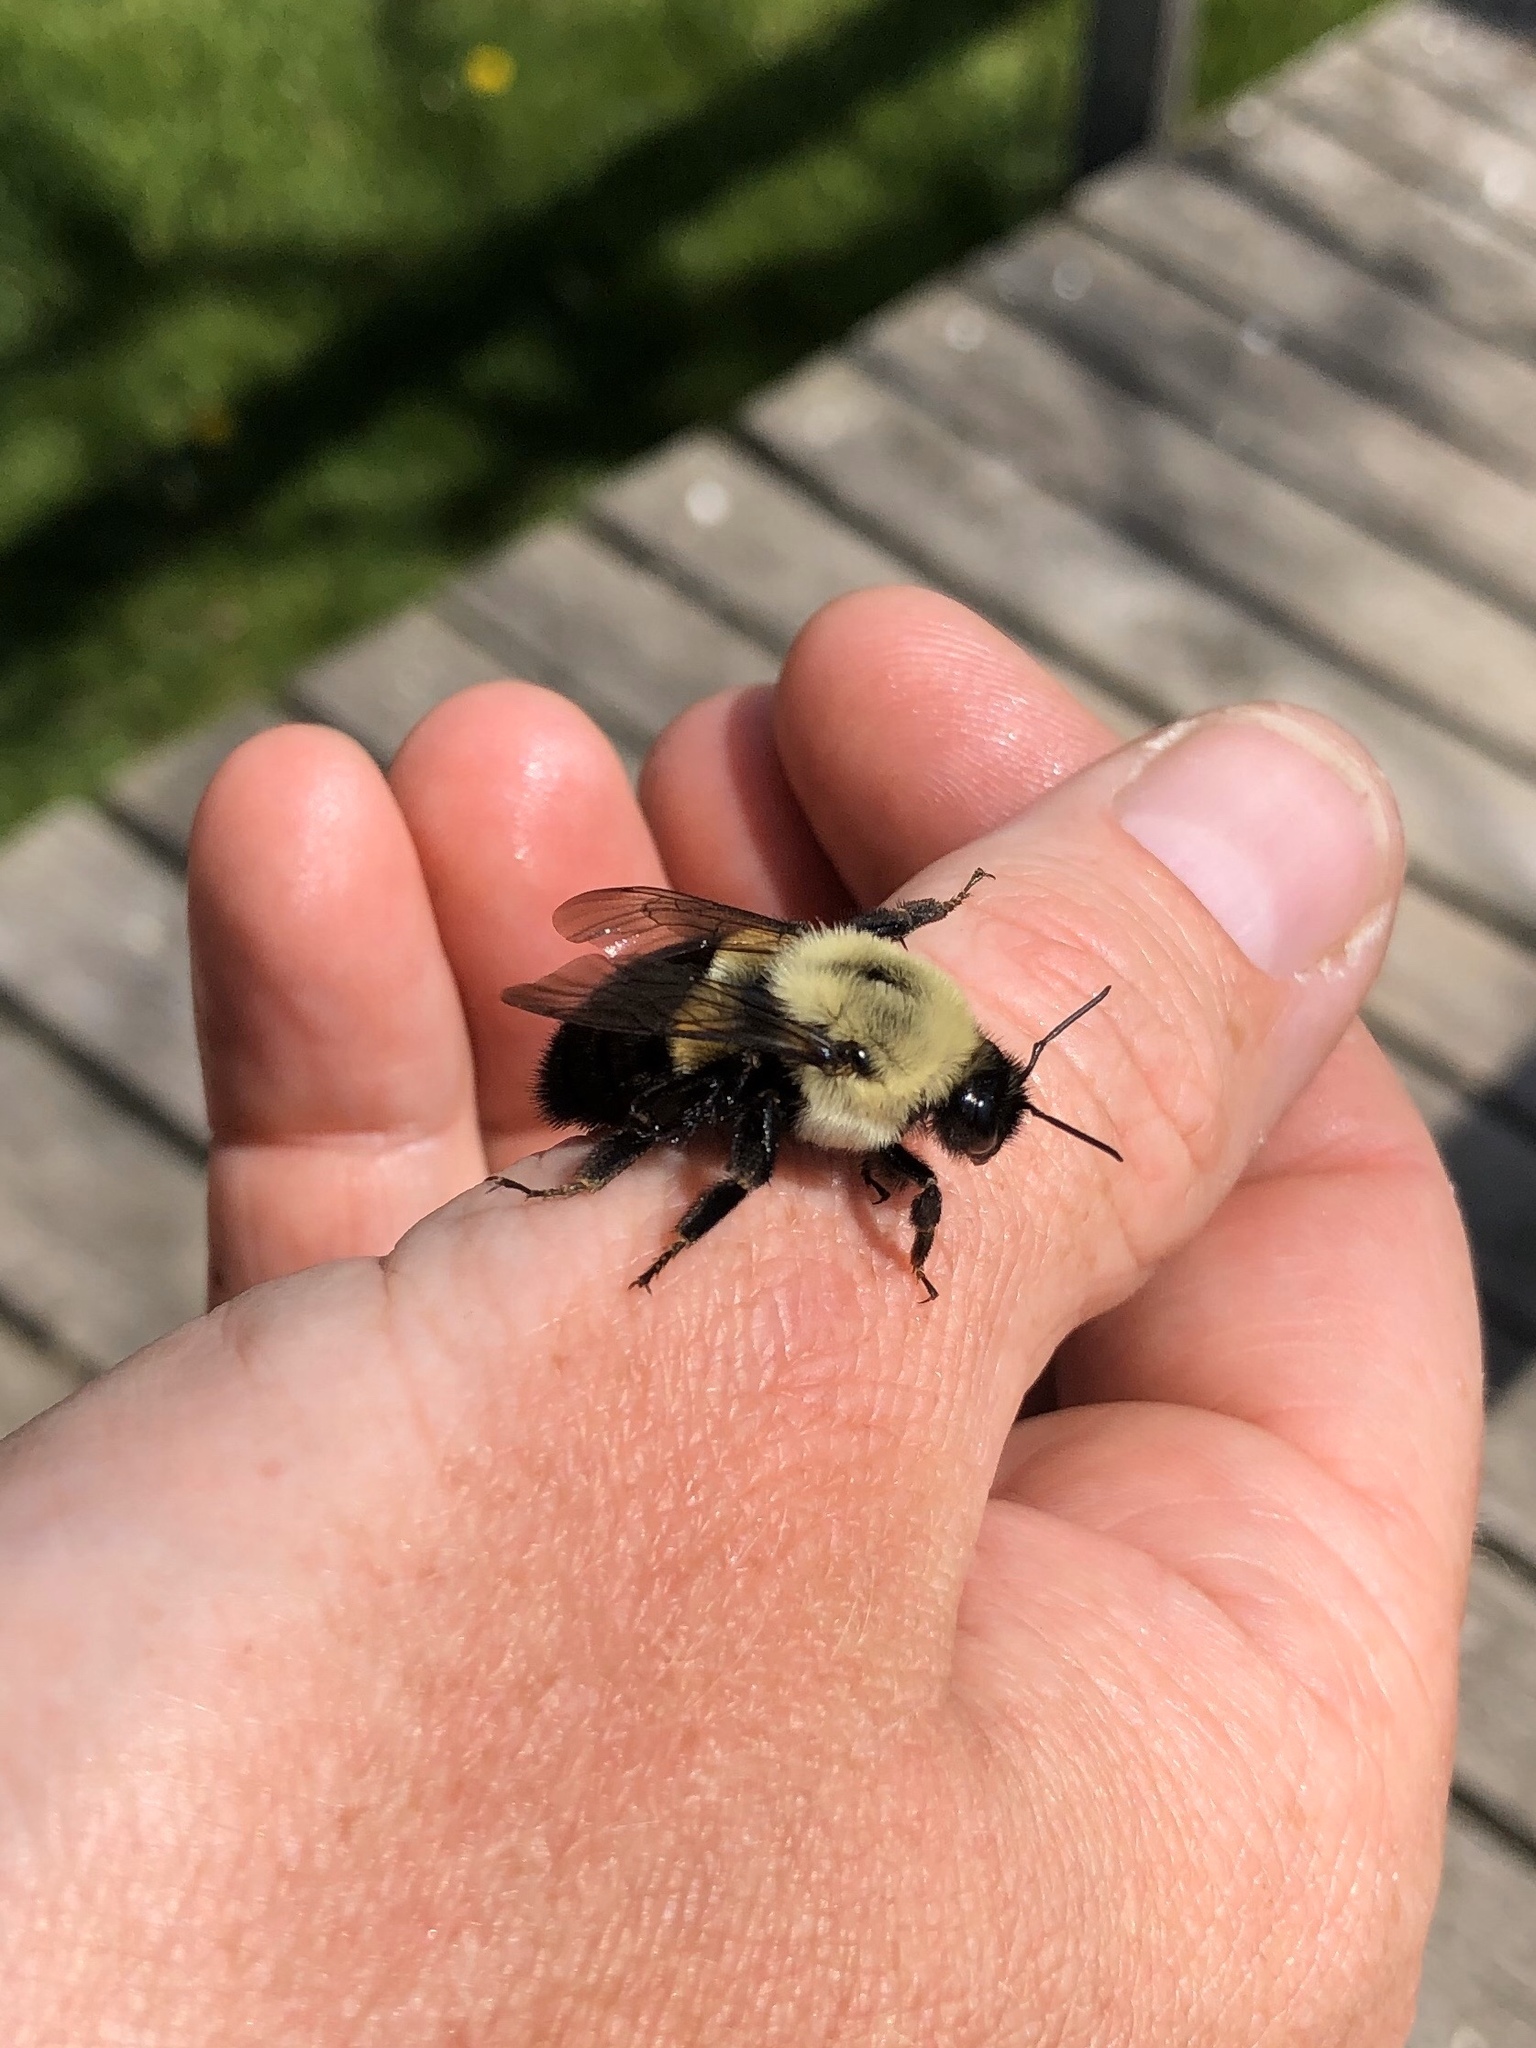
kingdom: Animalia
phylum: Arthropoda
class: Insecta
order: Hymenoptera
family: Apidae
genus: Bombus
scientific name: Bombus impatiens
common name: Common eastern bumble bee
